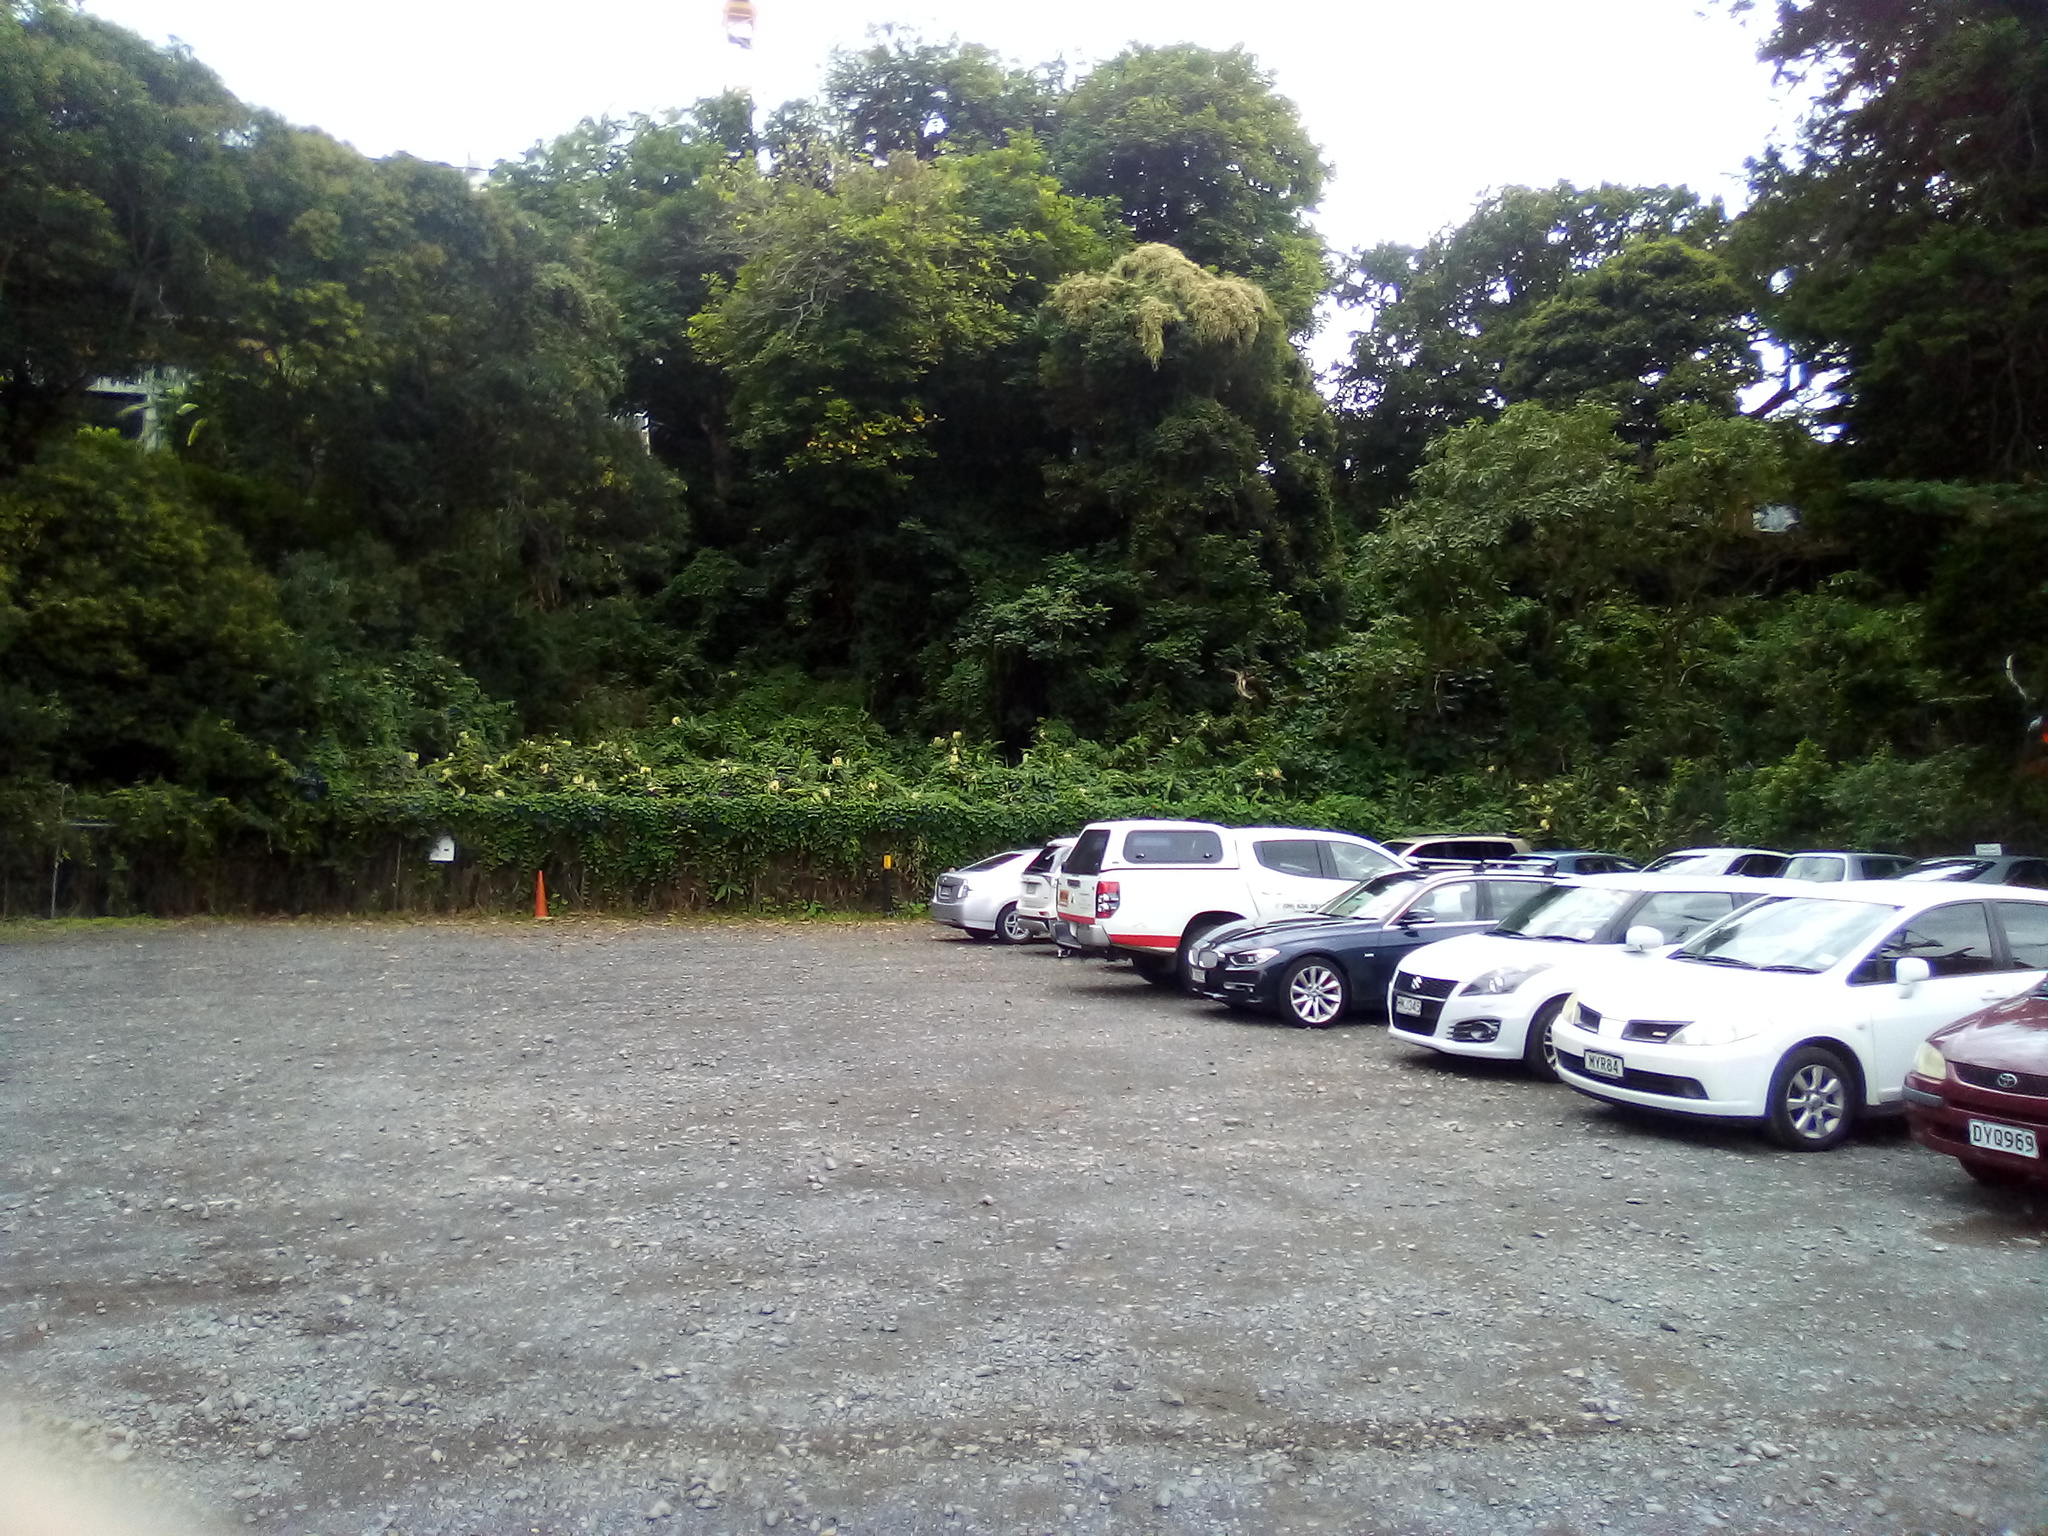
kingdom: Plantae
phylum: Tracheophyta
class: Liliopsida
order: Zingiberales
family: Zingiberaceae
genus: Hedychium
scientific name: Hedychium flavescens
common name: Yellow ginger
